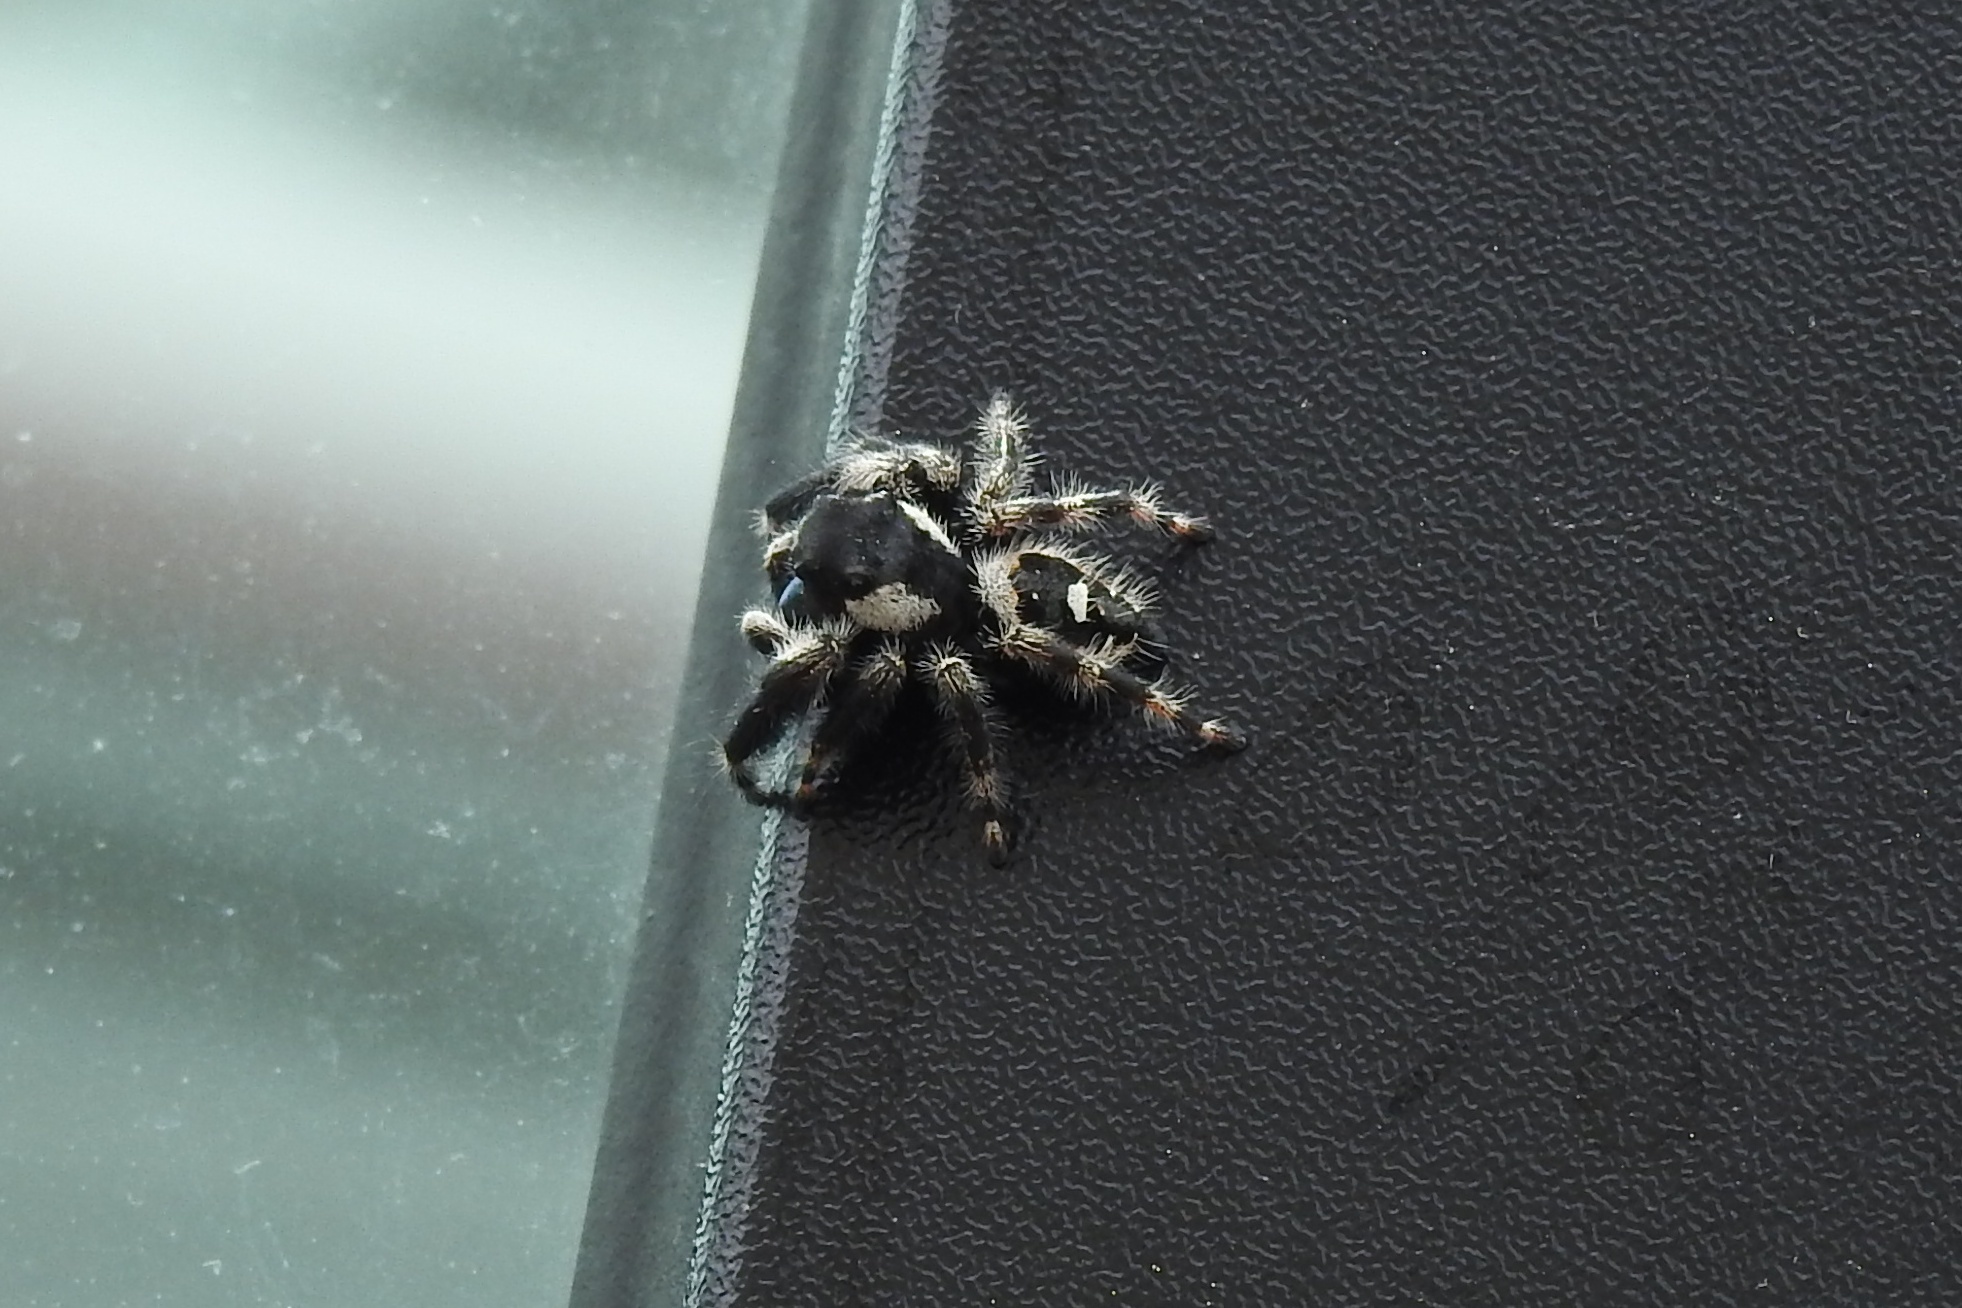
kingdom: Animalia
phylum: Arthropoda
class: Arachnida
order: Araneae
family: Salticidae
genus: Phidippus
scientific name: Phidippus audax
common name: Bold jumper
